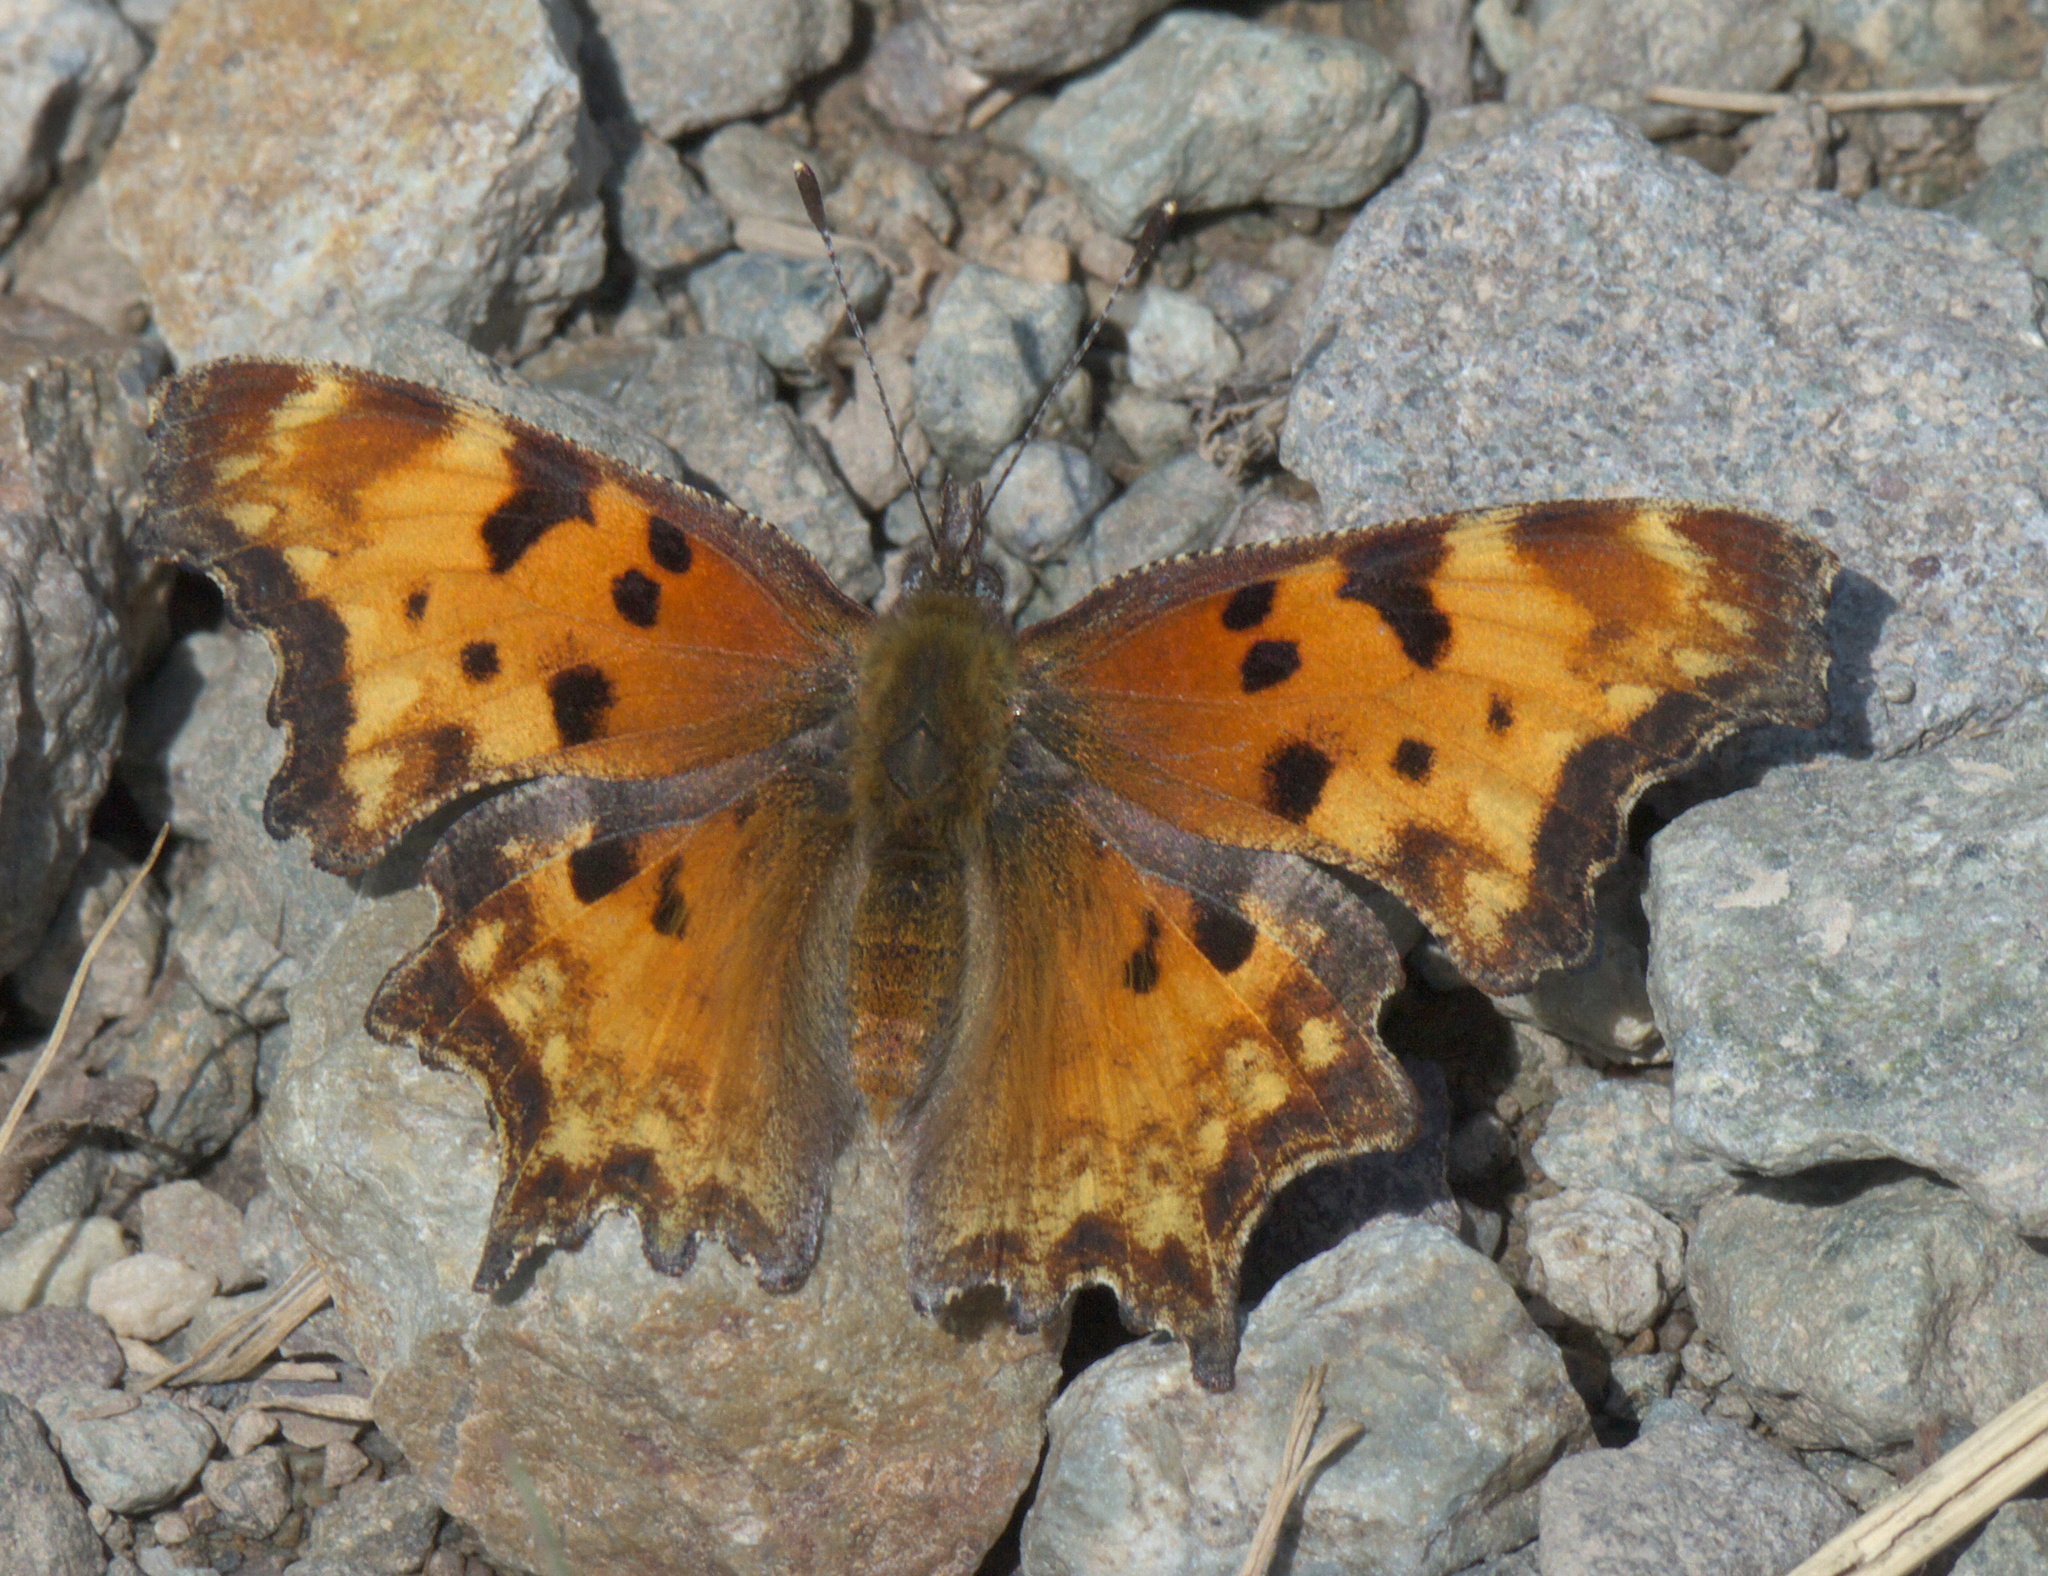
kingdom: Animalia
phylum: Arthropoda
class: Insecta
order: Lepidoptera
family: Nymphalidae
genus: Polygonia
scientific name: Polygonia gracilis
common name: Hoary comma
